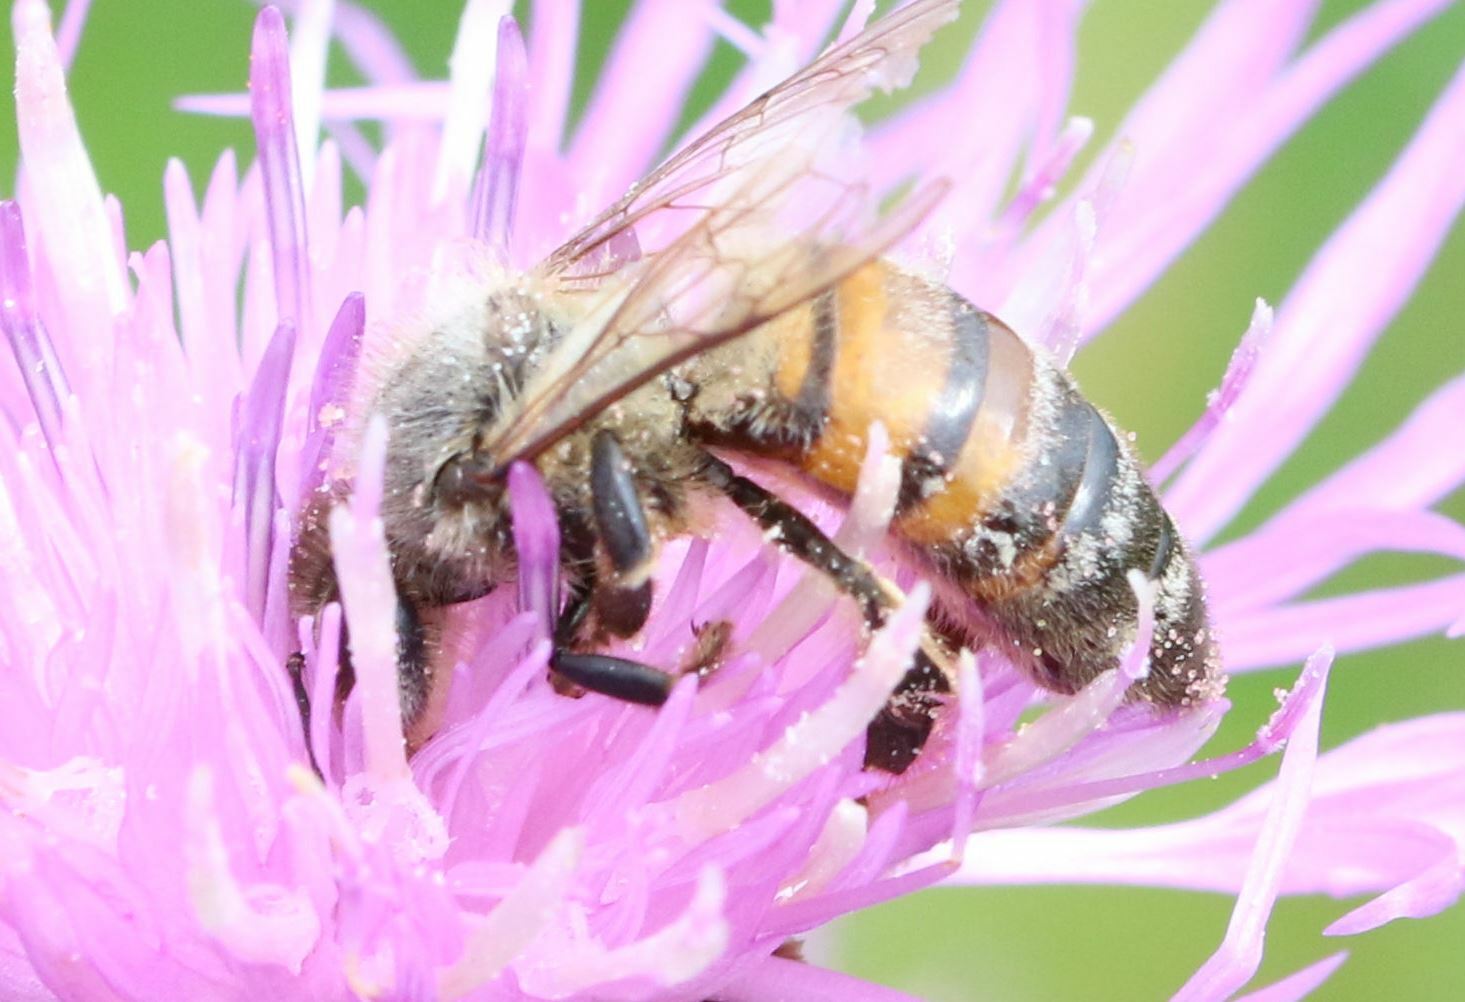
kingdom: Animalia
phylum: Arthropoda
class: Insecta
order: Hymenoptera
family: Apidae
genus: Apis
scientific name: Apis mellifera
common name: Honey bee
